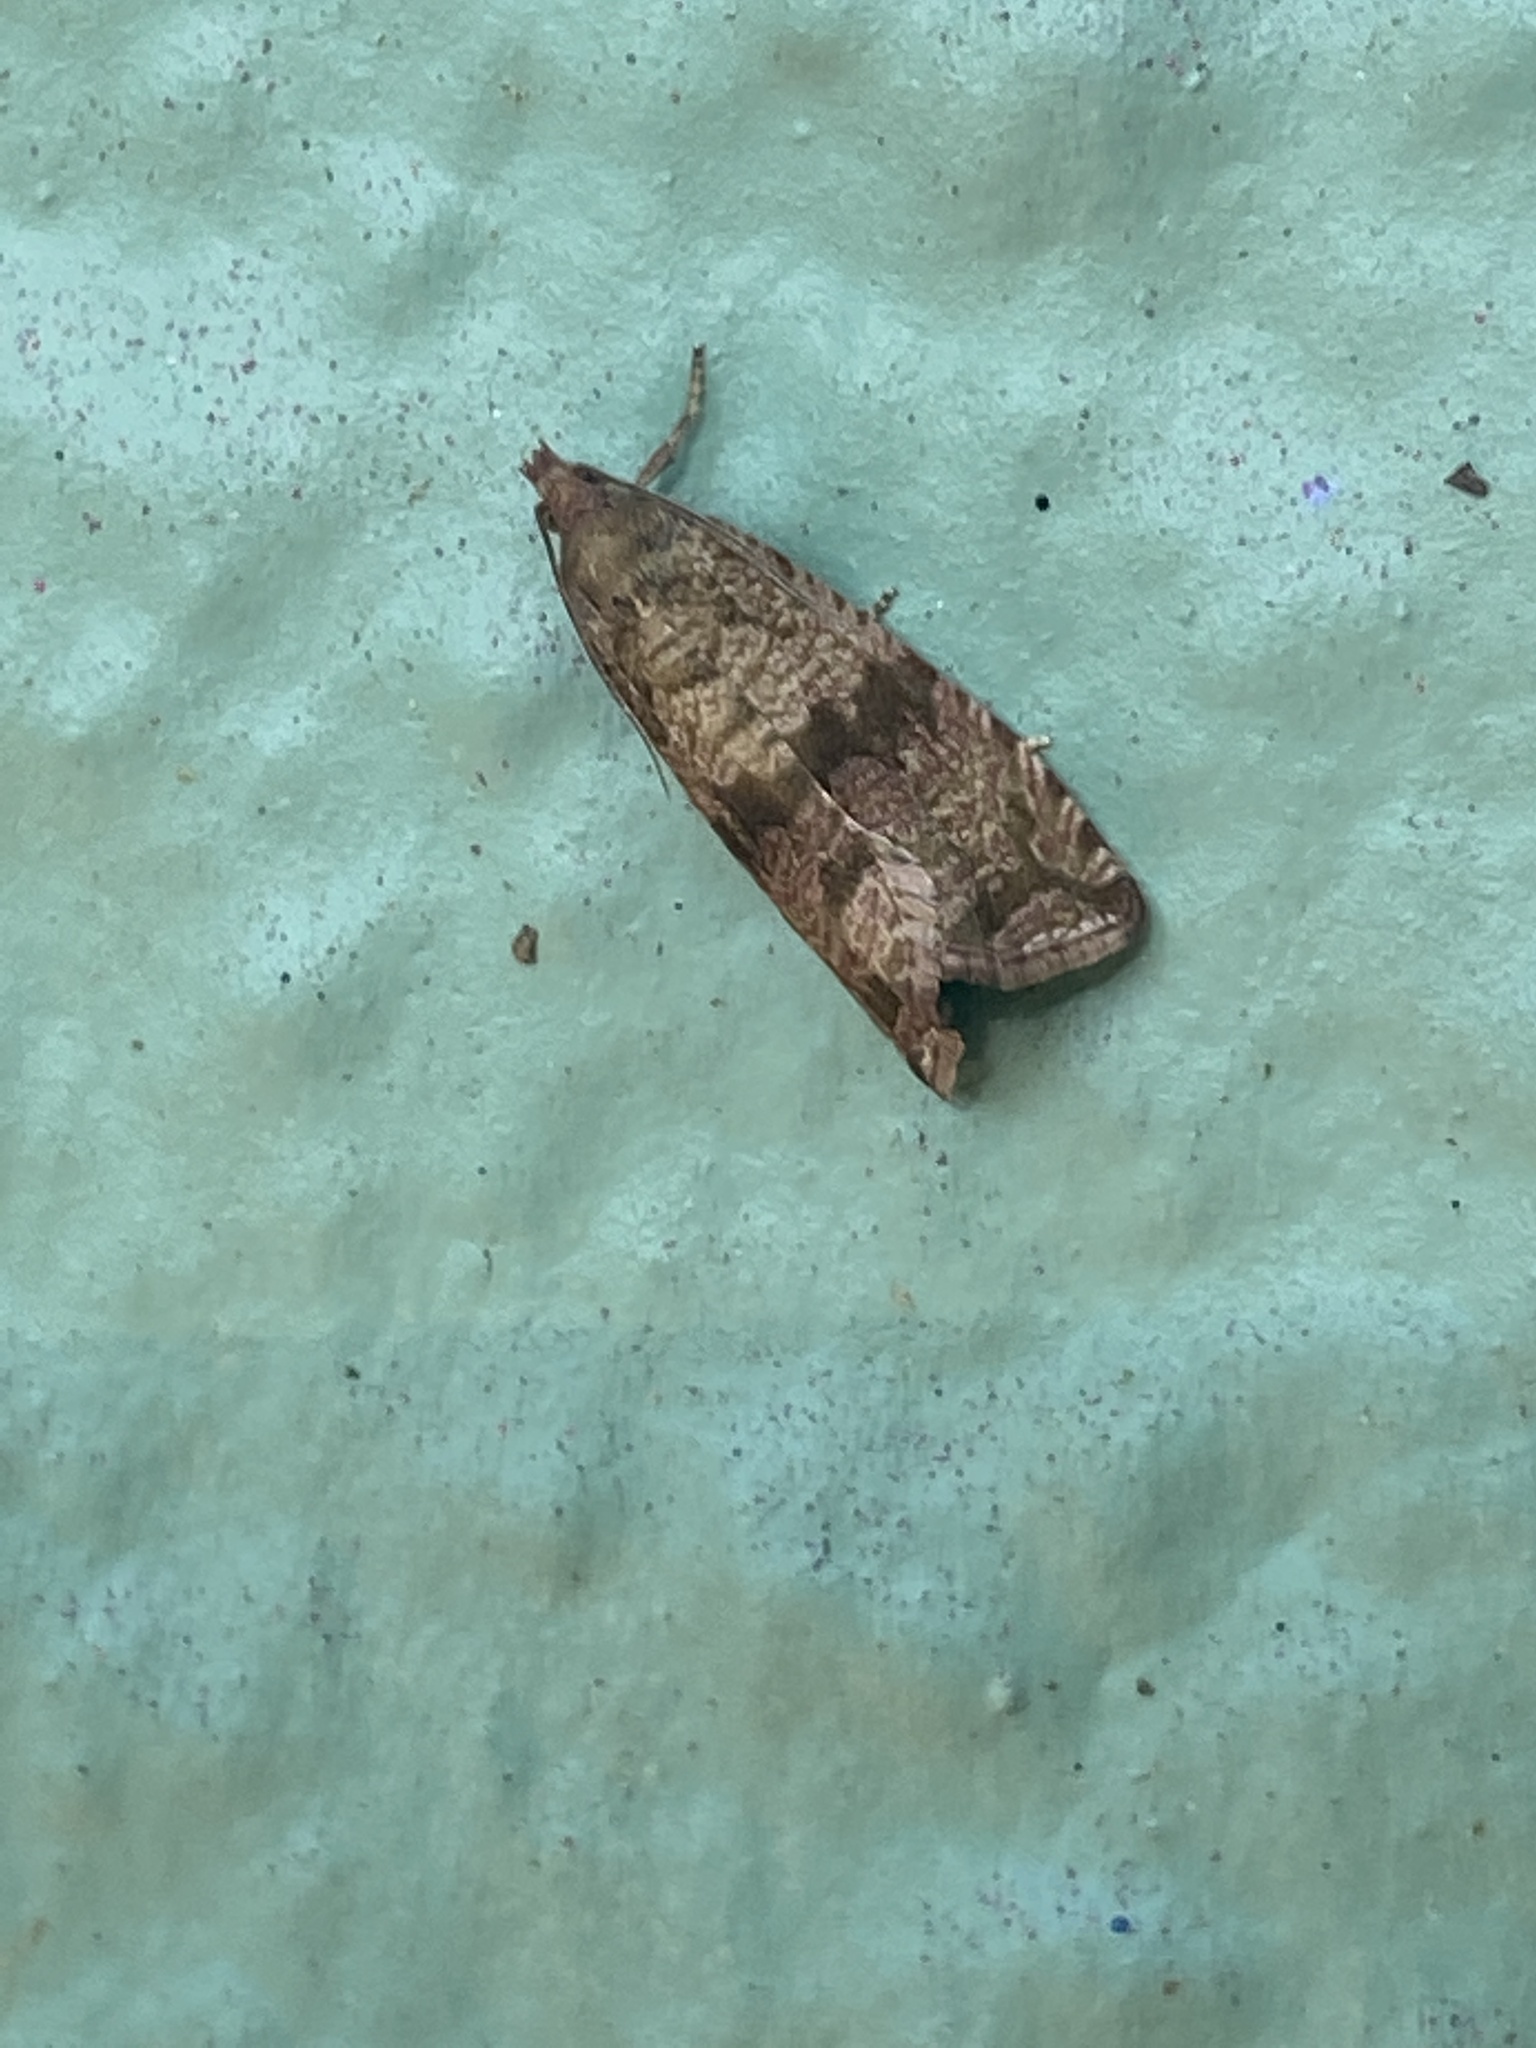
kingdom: Animalia
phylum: Arthropoda
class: Insecta
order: Lepidoptera
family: Tortricidae
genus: Celypha
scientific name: Celypha striana
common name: Barred marble
